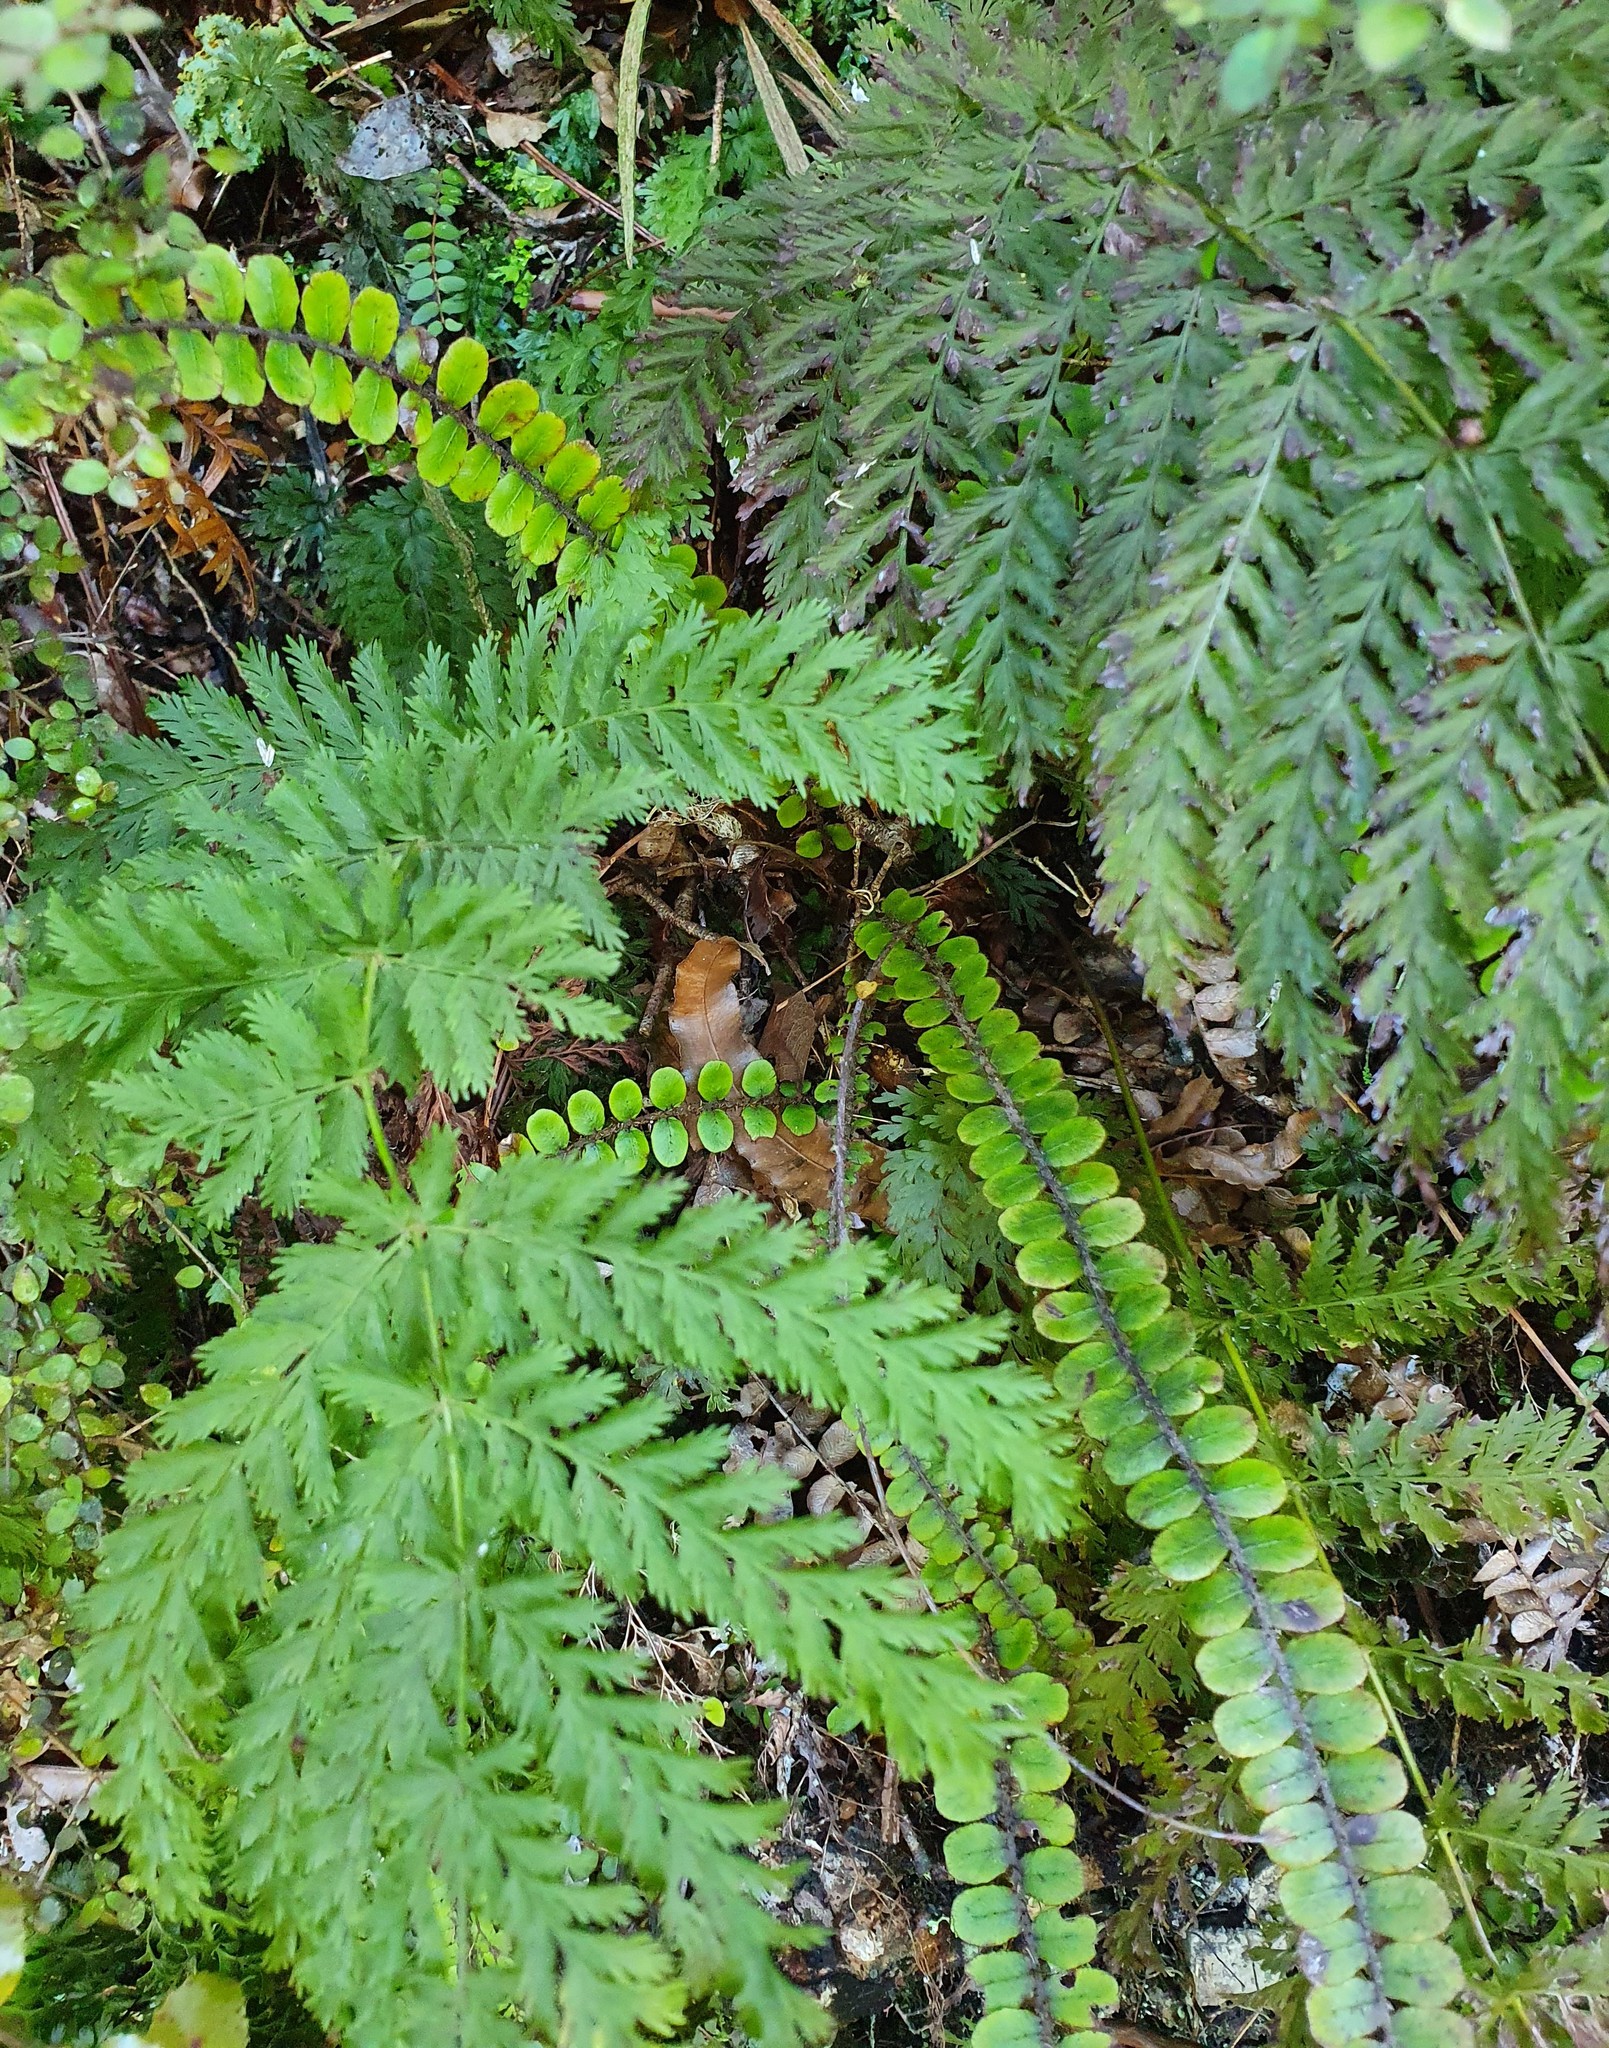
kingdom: Plantae
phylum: Tracheophyta
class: Polypodiopsida
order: Osmundales
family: Osmundaceae
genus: Leptopteris
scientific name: Leptopteris hymenophylloides
